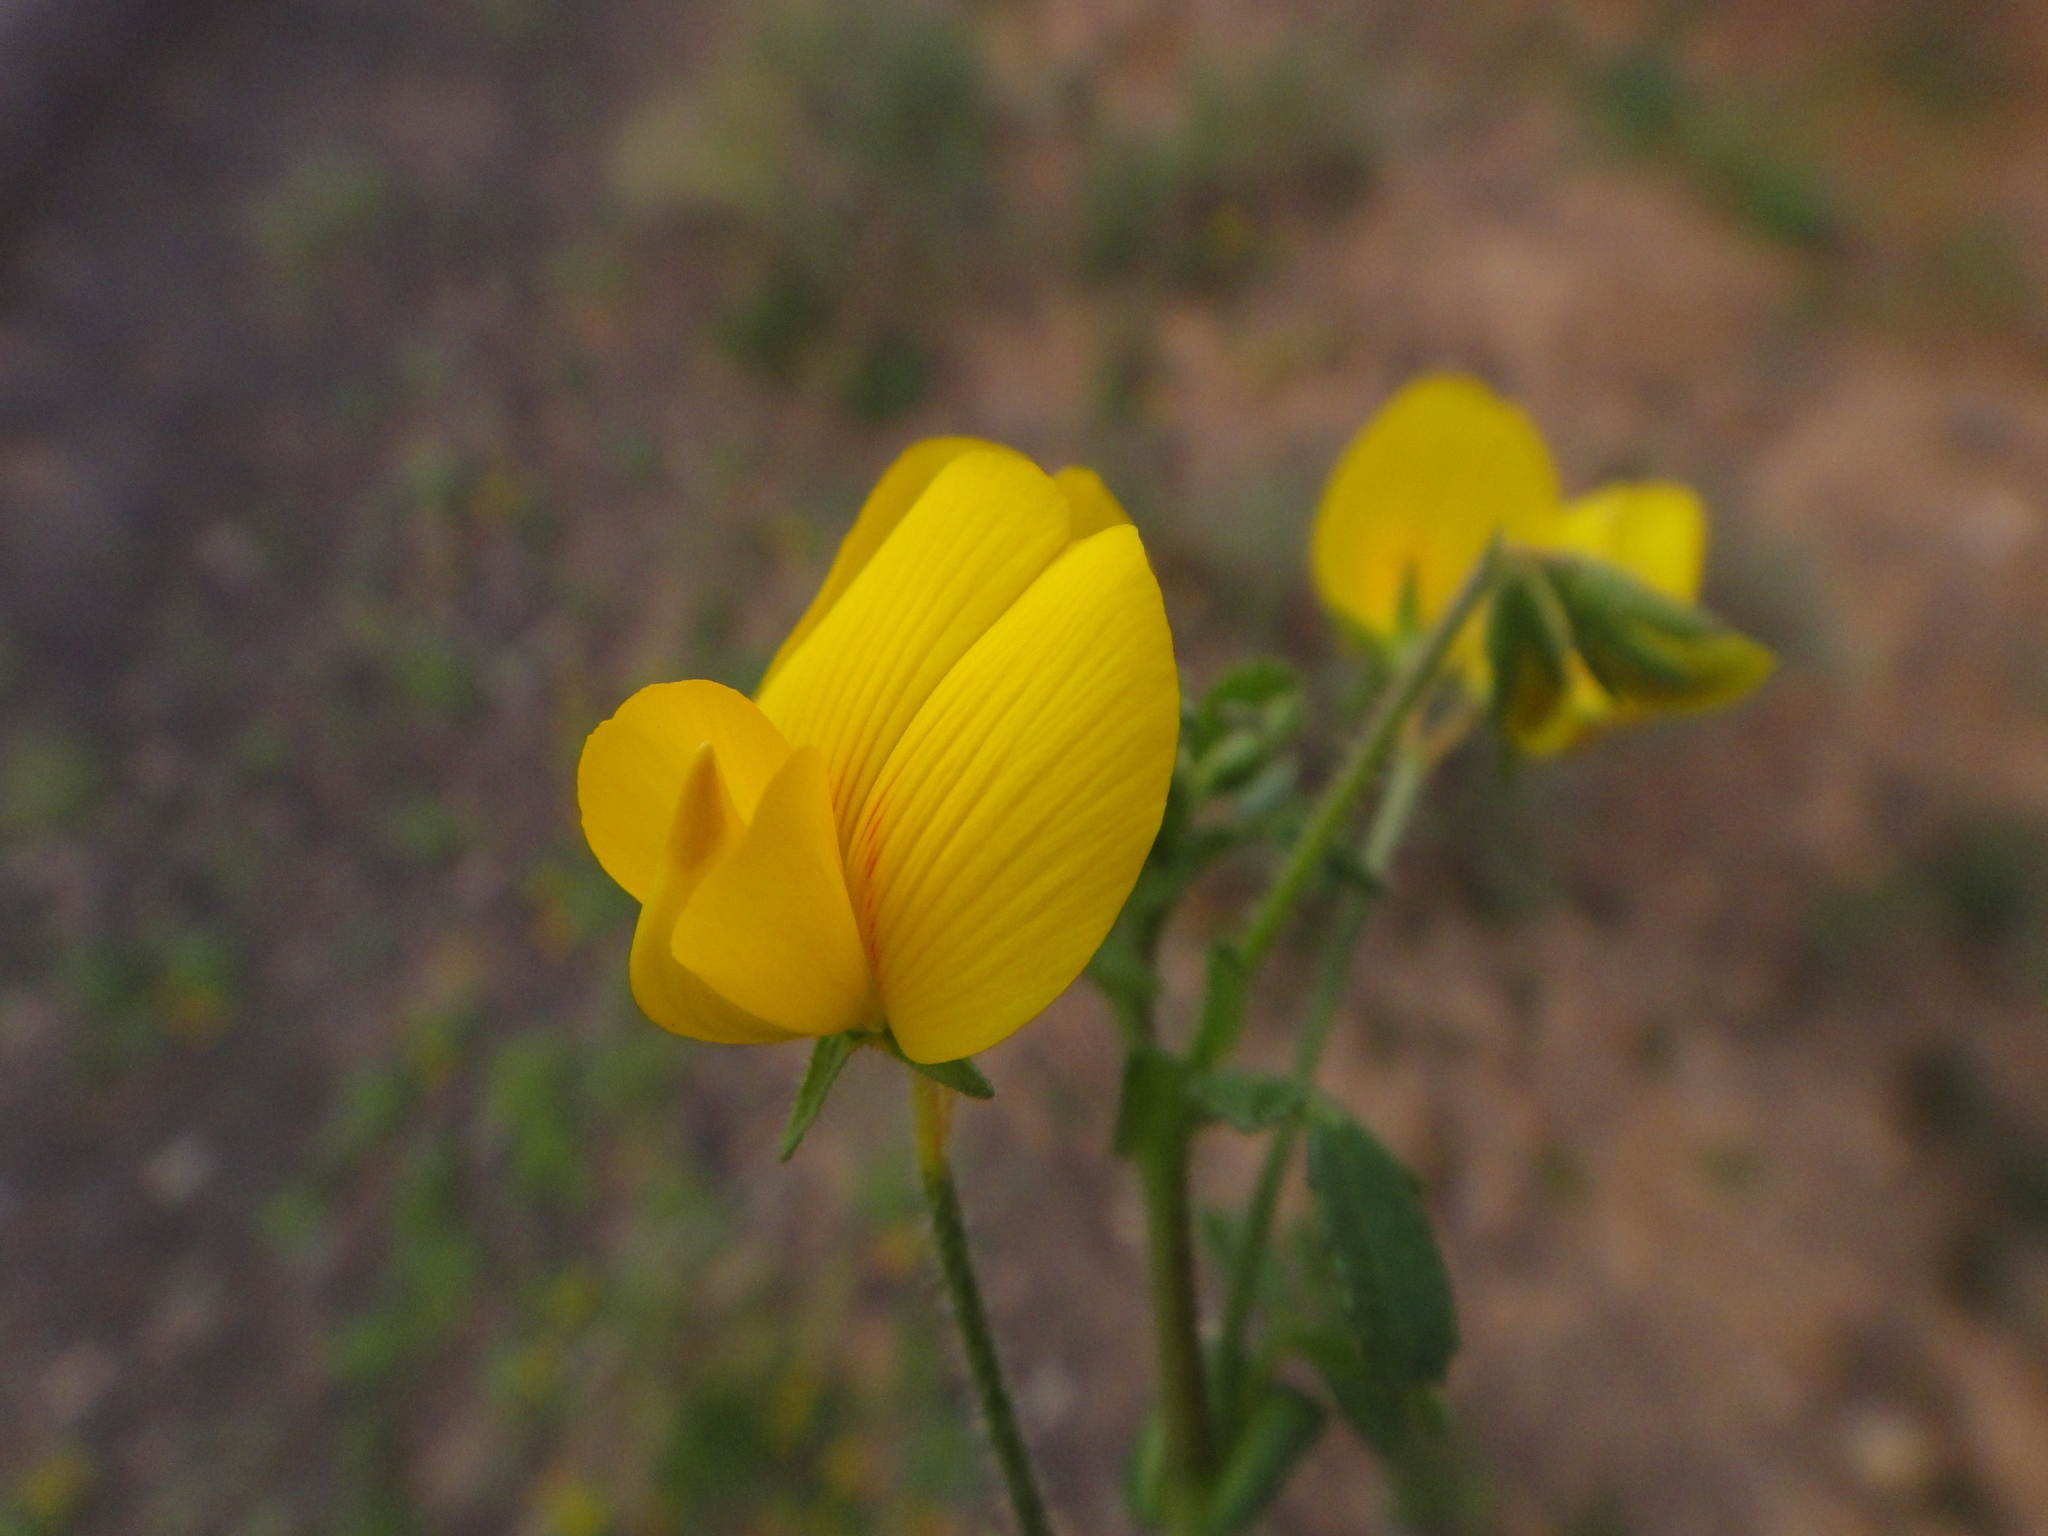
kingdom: Plantae
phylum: Tracheophyta
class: Magnoliopsida
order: Fabales
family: Fabaceae
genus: Ononis
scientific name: Ononis catalinae
